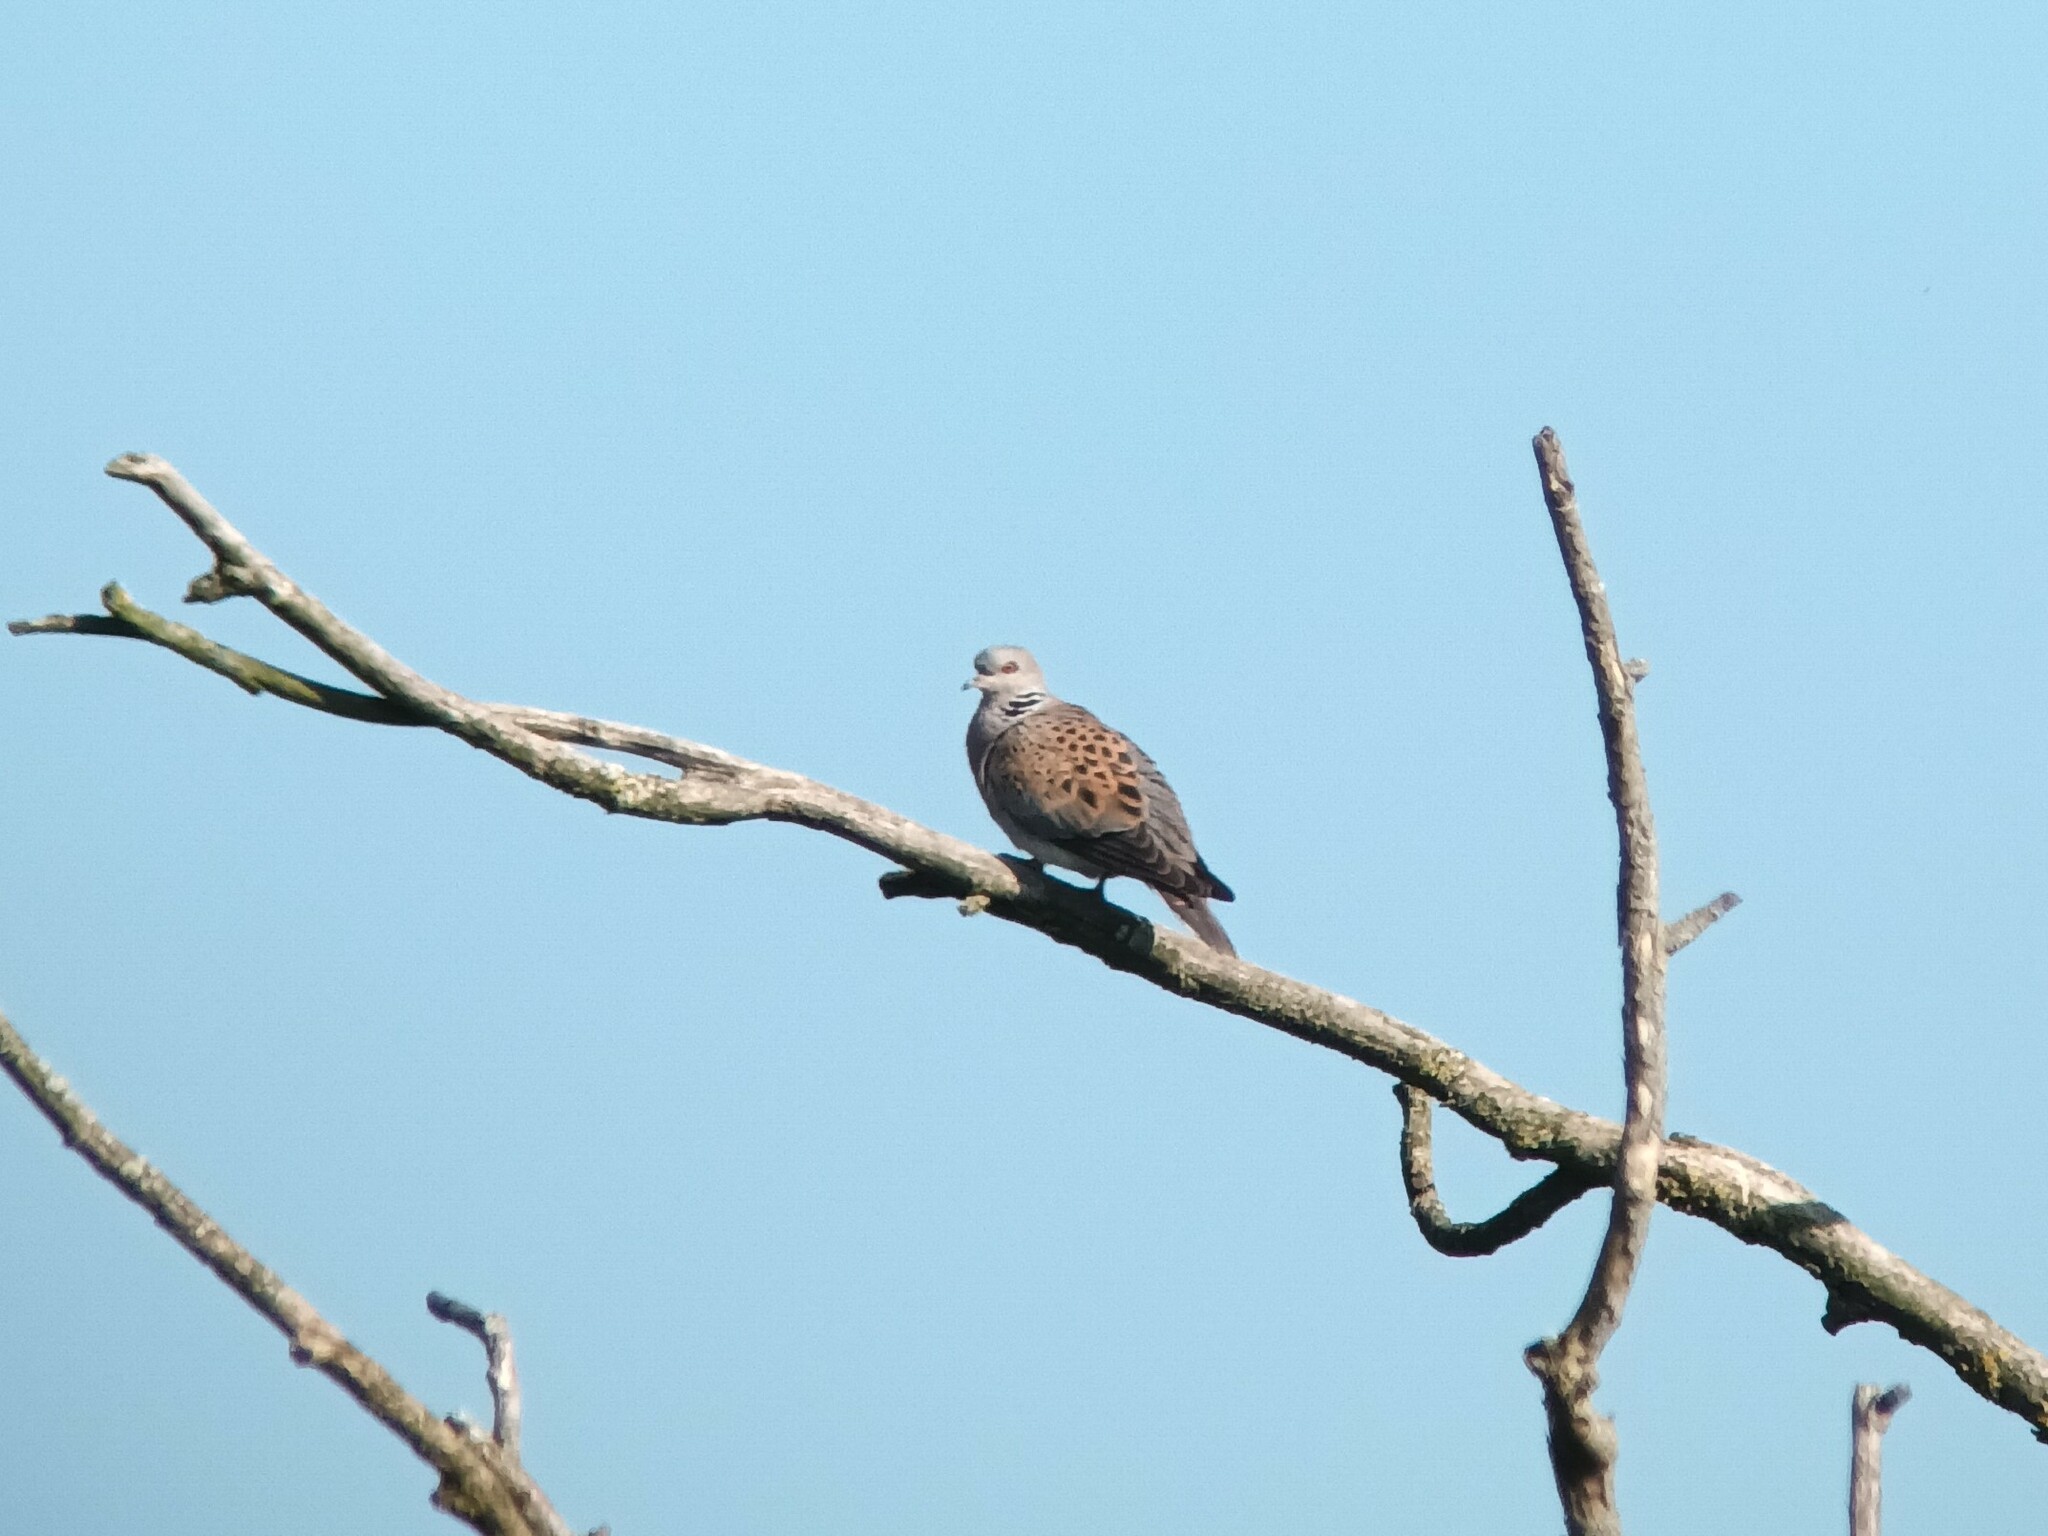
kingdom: Animalia
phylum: Chordata
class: Aves
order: Columbiformes
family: Columbidae
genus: Streptopelia
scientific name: Streptopelia turtur
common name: European turtle dove
